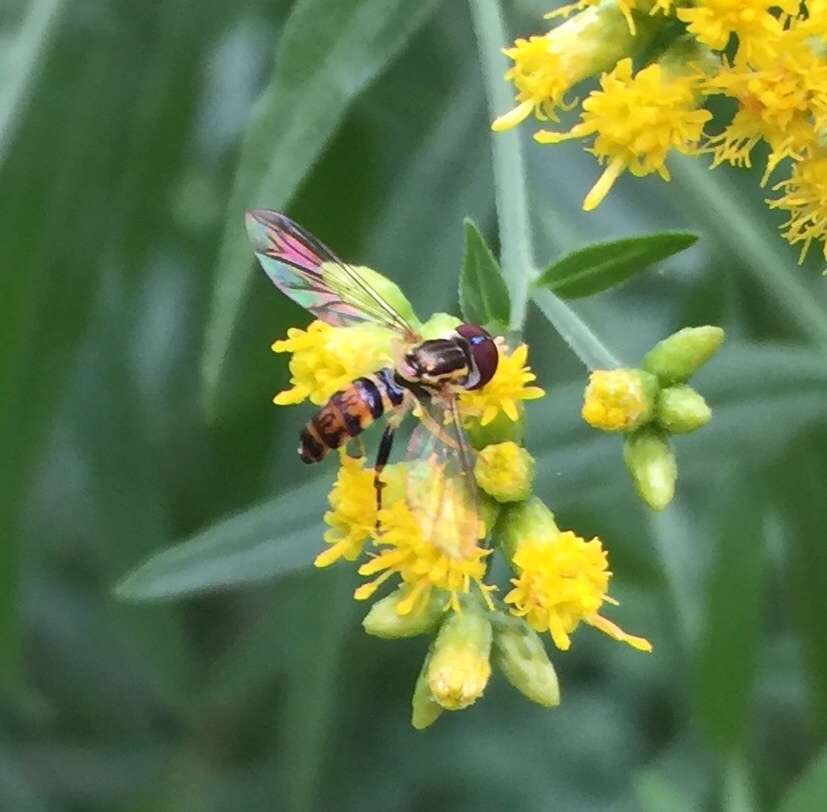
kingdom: Animalia
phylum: Arthropoda
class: Insecta
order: Diptera
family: Syrphidae
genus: Toxomerus
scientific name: Toxomerus geminatus
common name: Eastern calligrapher
